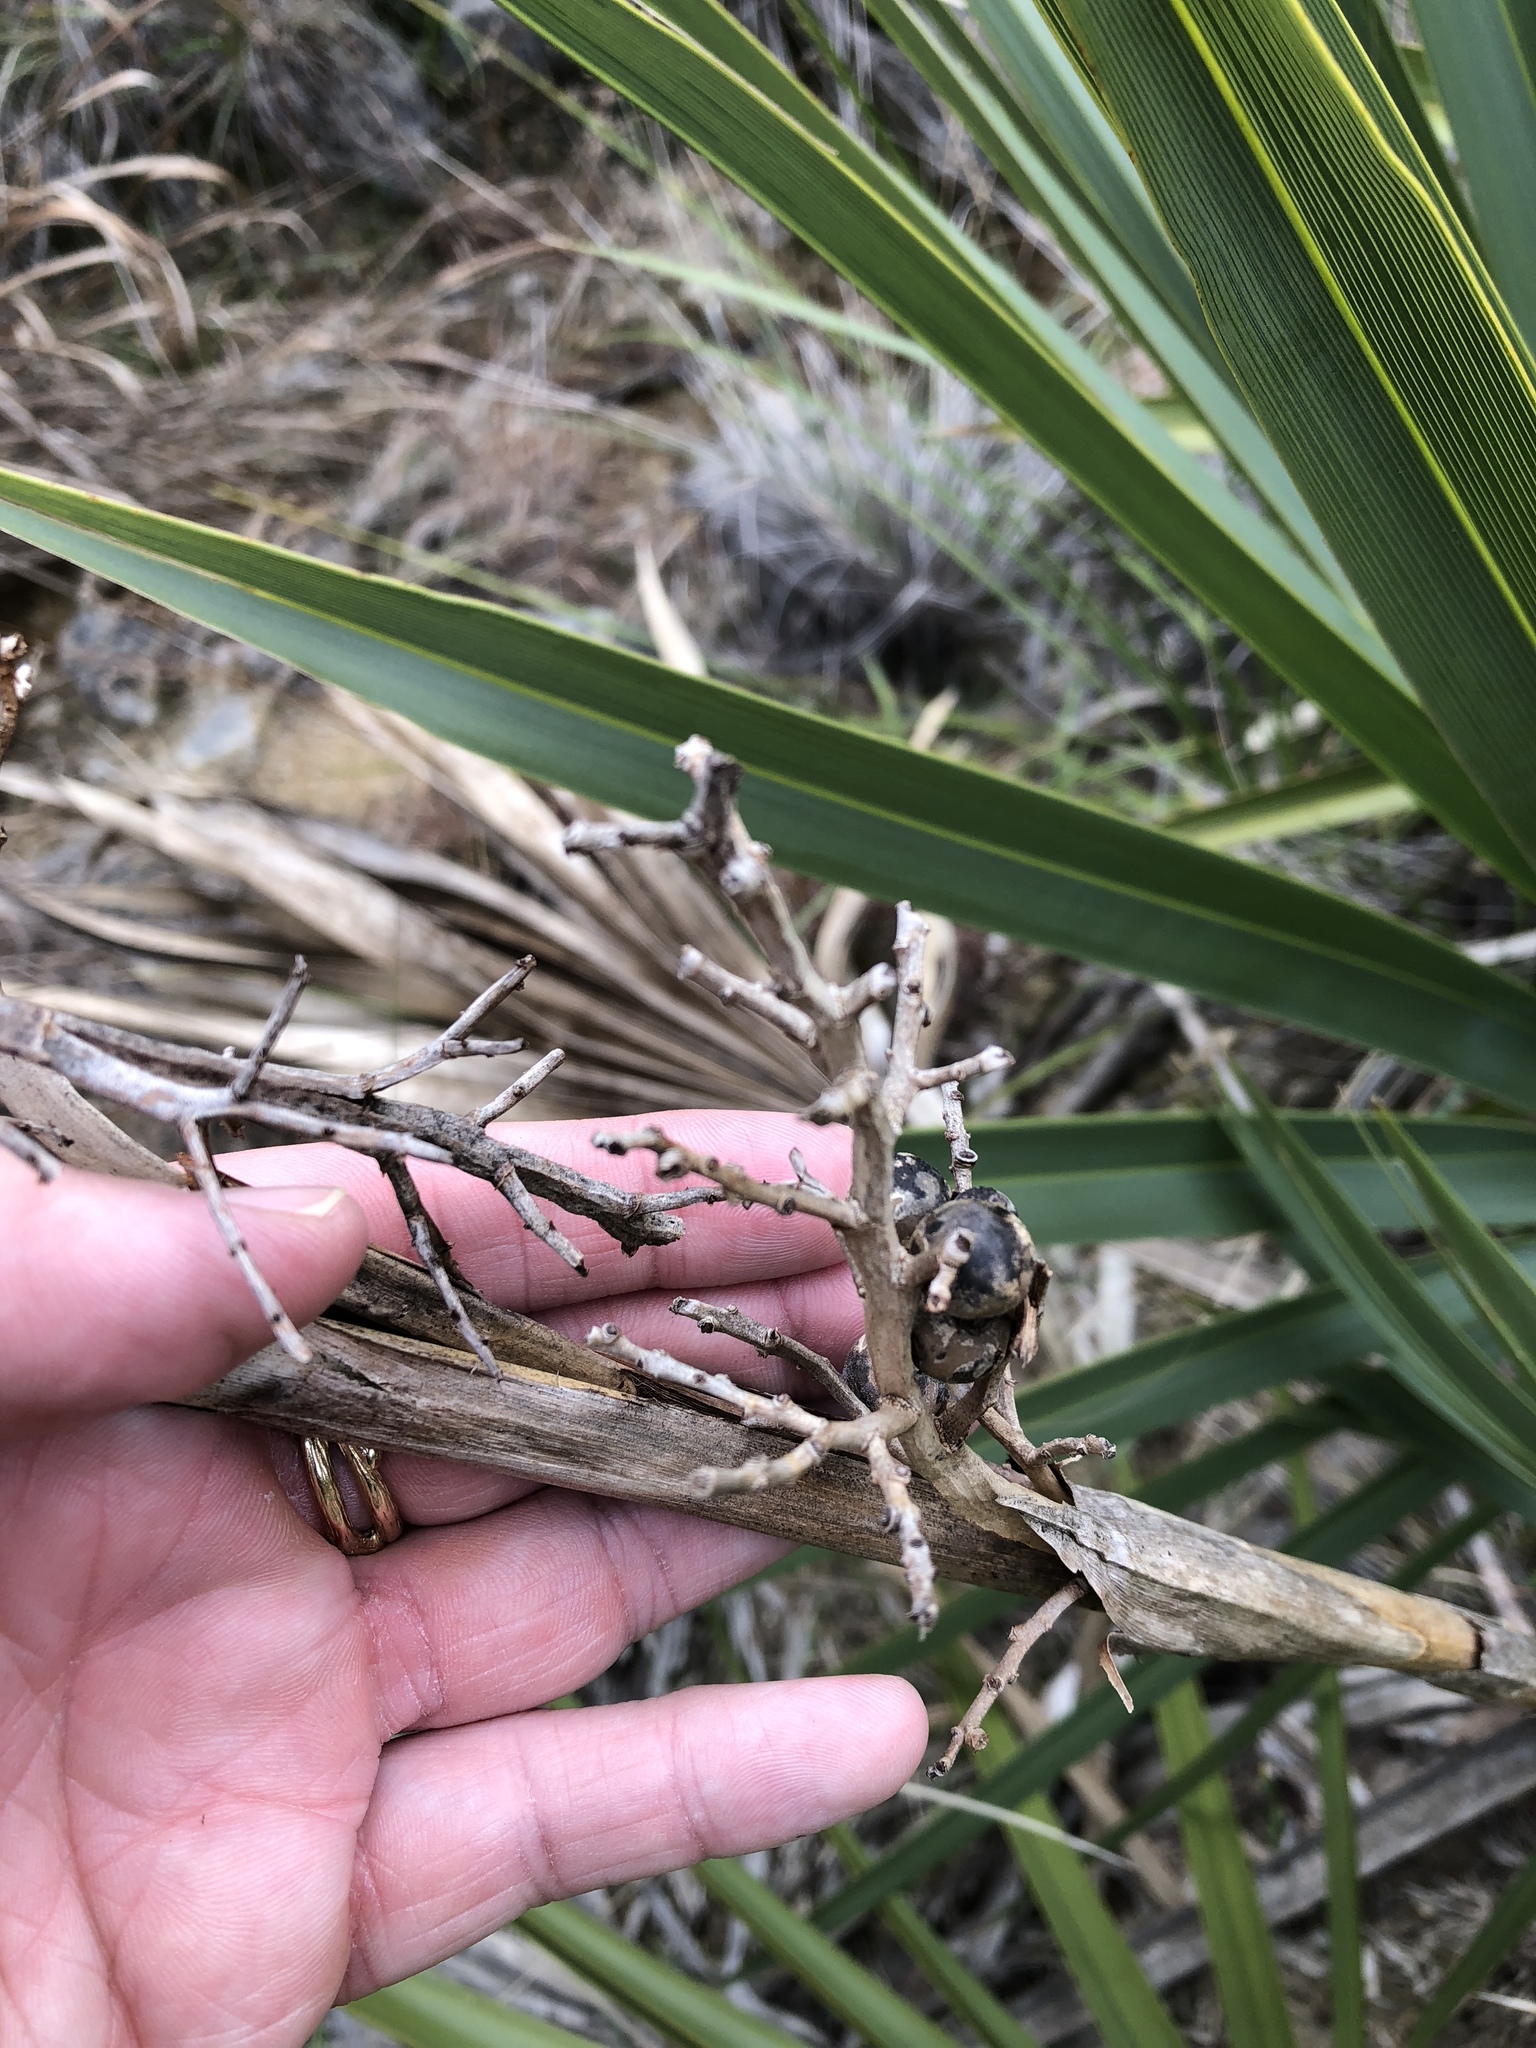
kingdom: Plantae
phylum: Tracheophyta
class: Liliopsida
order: Arecales
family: Arecaceae
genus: Sabal
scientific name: Sabal minor
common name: Dwarf palmetto
